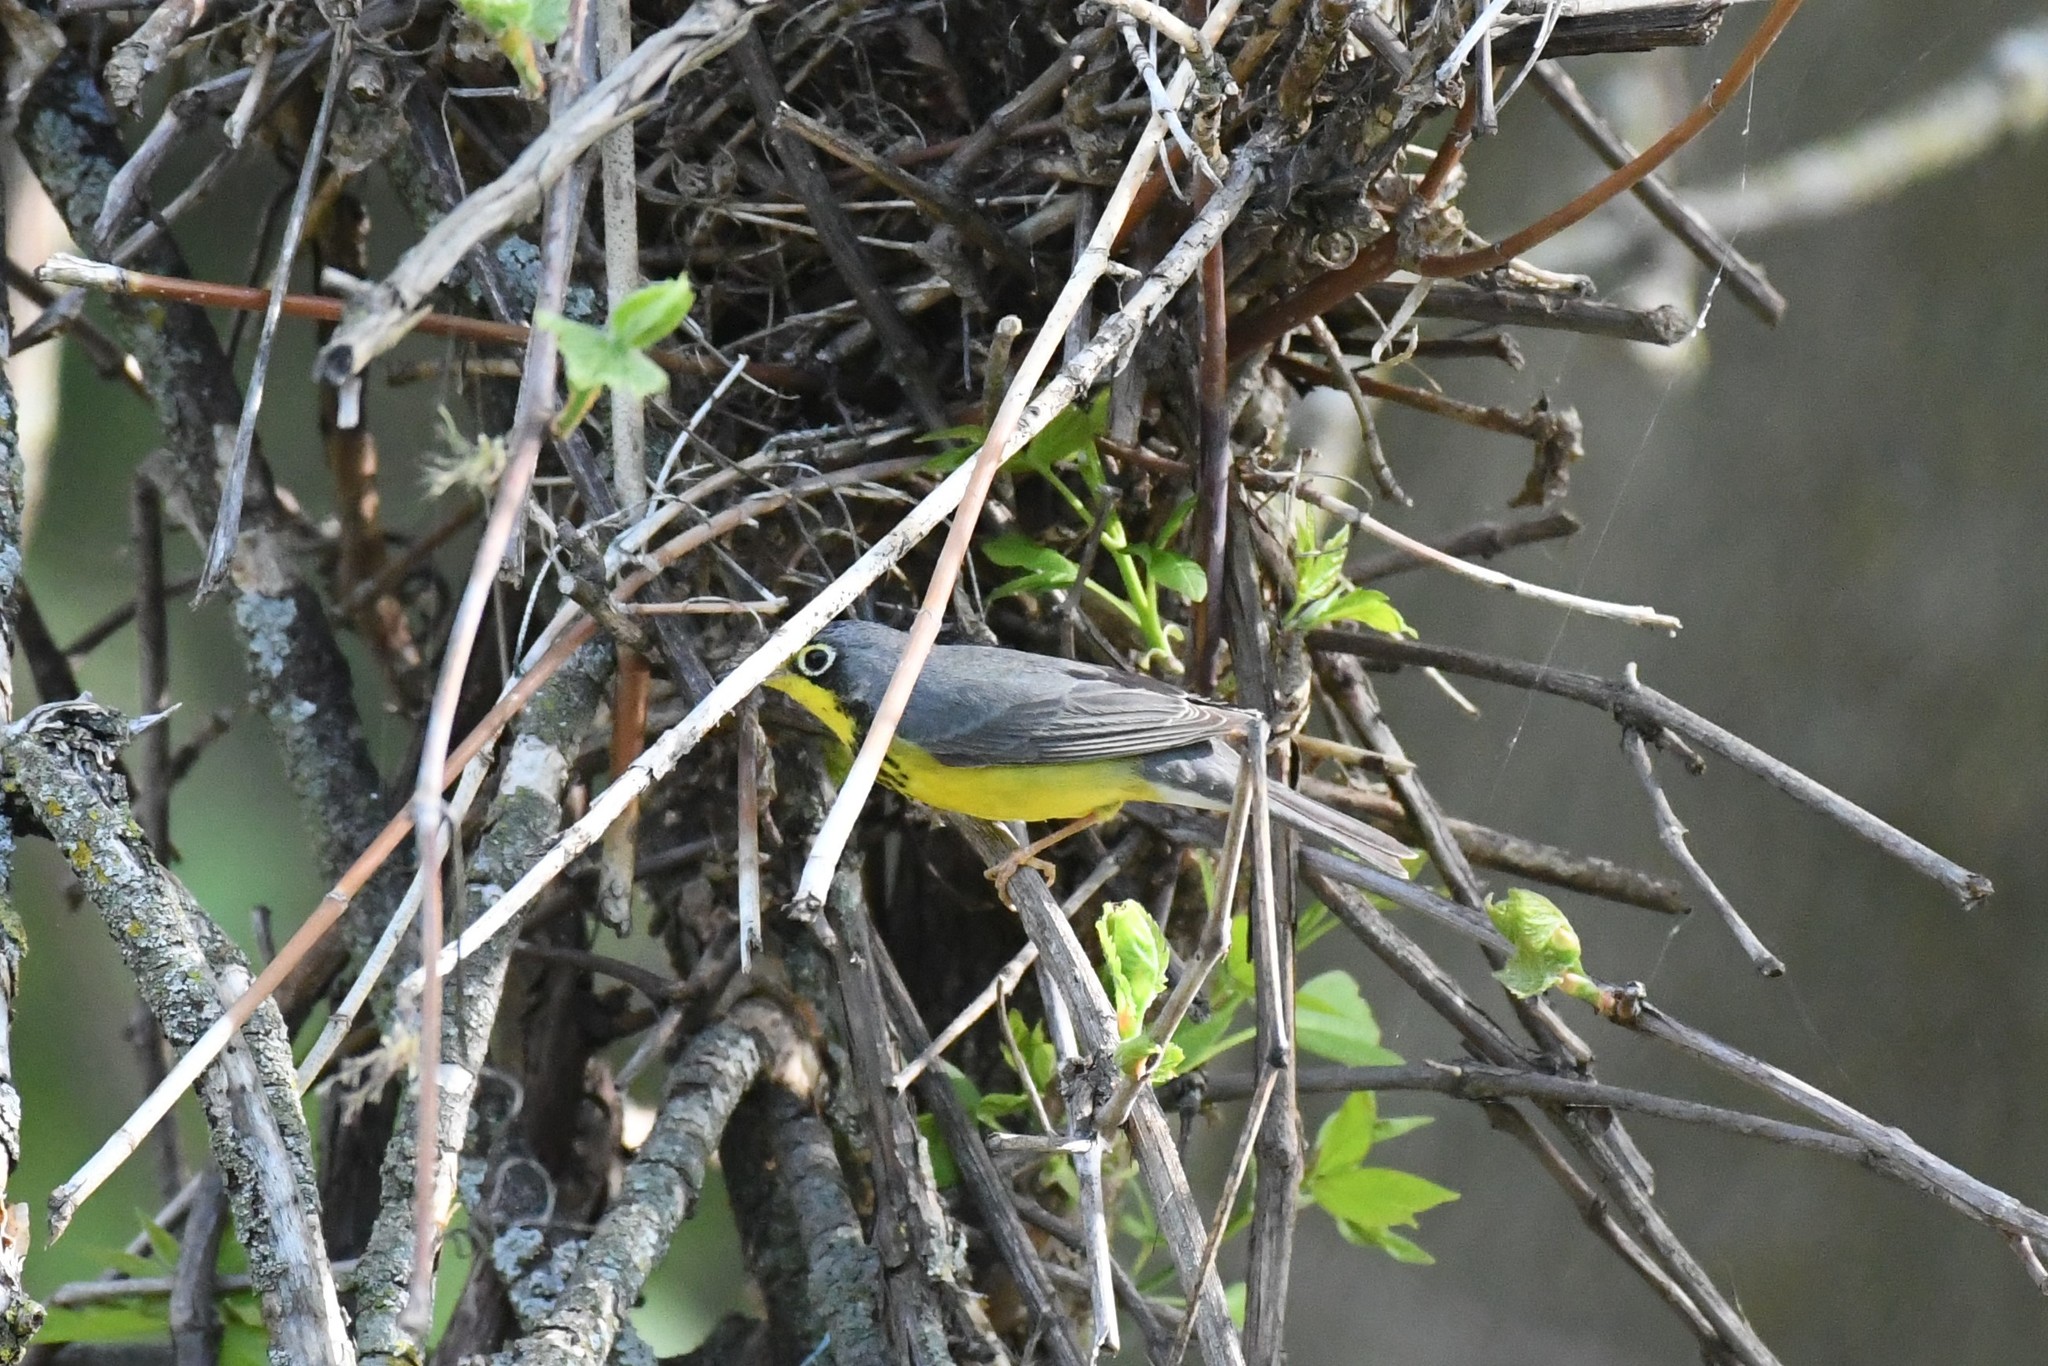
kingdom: Animalia
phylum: Chordata
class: Aves
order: Passeriformes
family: Parulidae
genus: Cardellina
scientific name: Cardellina canadensis
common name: Canada warbler
